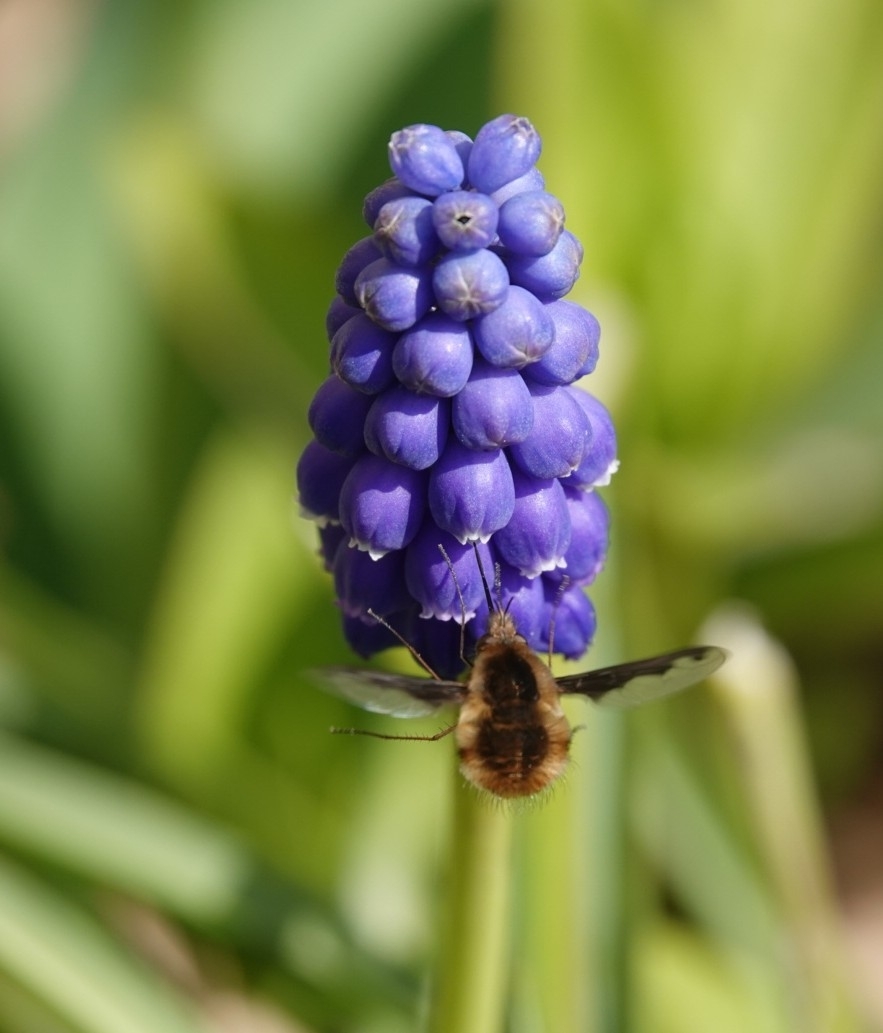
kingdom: Animalia
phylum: Arthropoda
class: Insecta
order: Diptera
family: Bombyliidae
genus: Bombylius
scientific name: Bombylius major
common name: Bee fly
